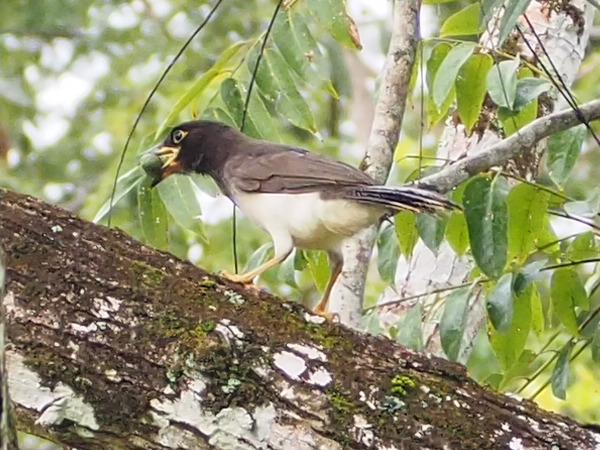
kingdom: Animalia
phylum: Chordata
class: Aves
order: Passeriformes
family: Corvidae
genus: Psilorhinus
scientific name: Psilorhinus morio
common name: Brown jay
